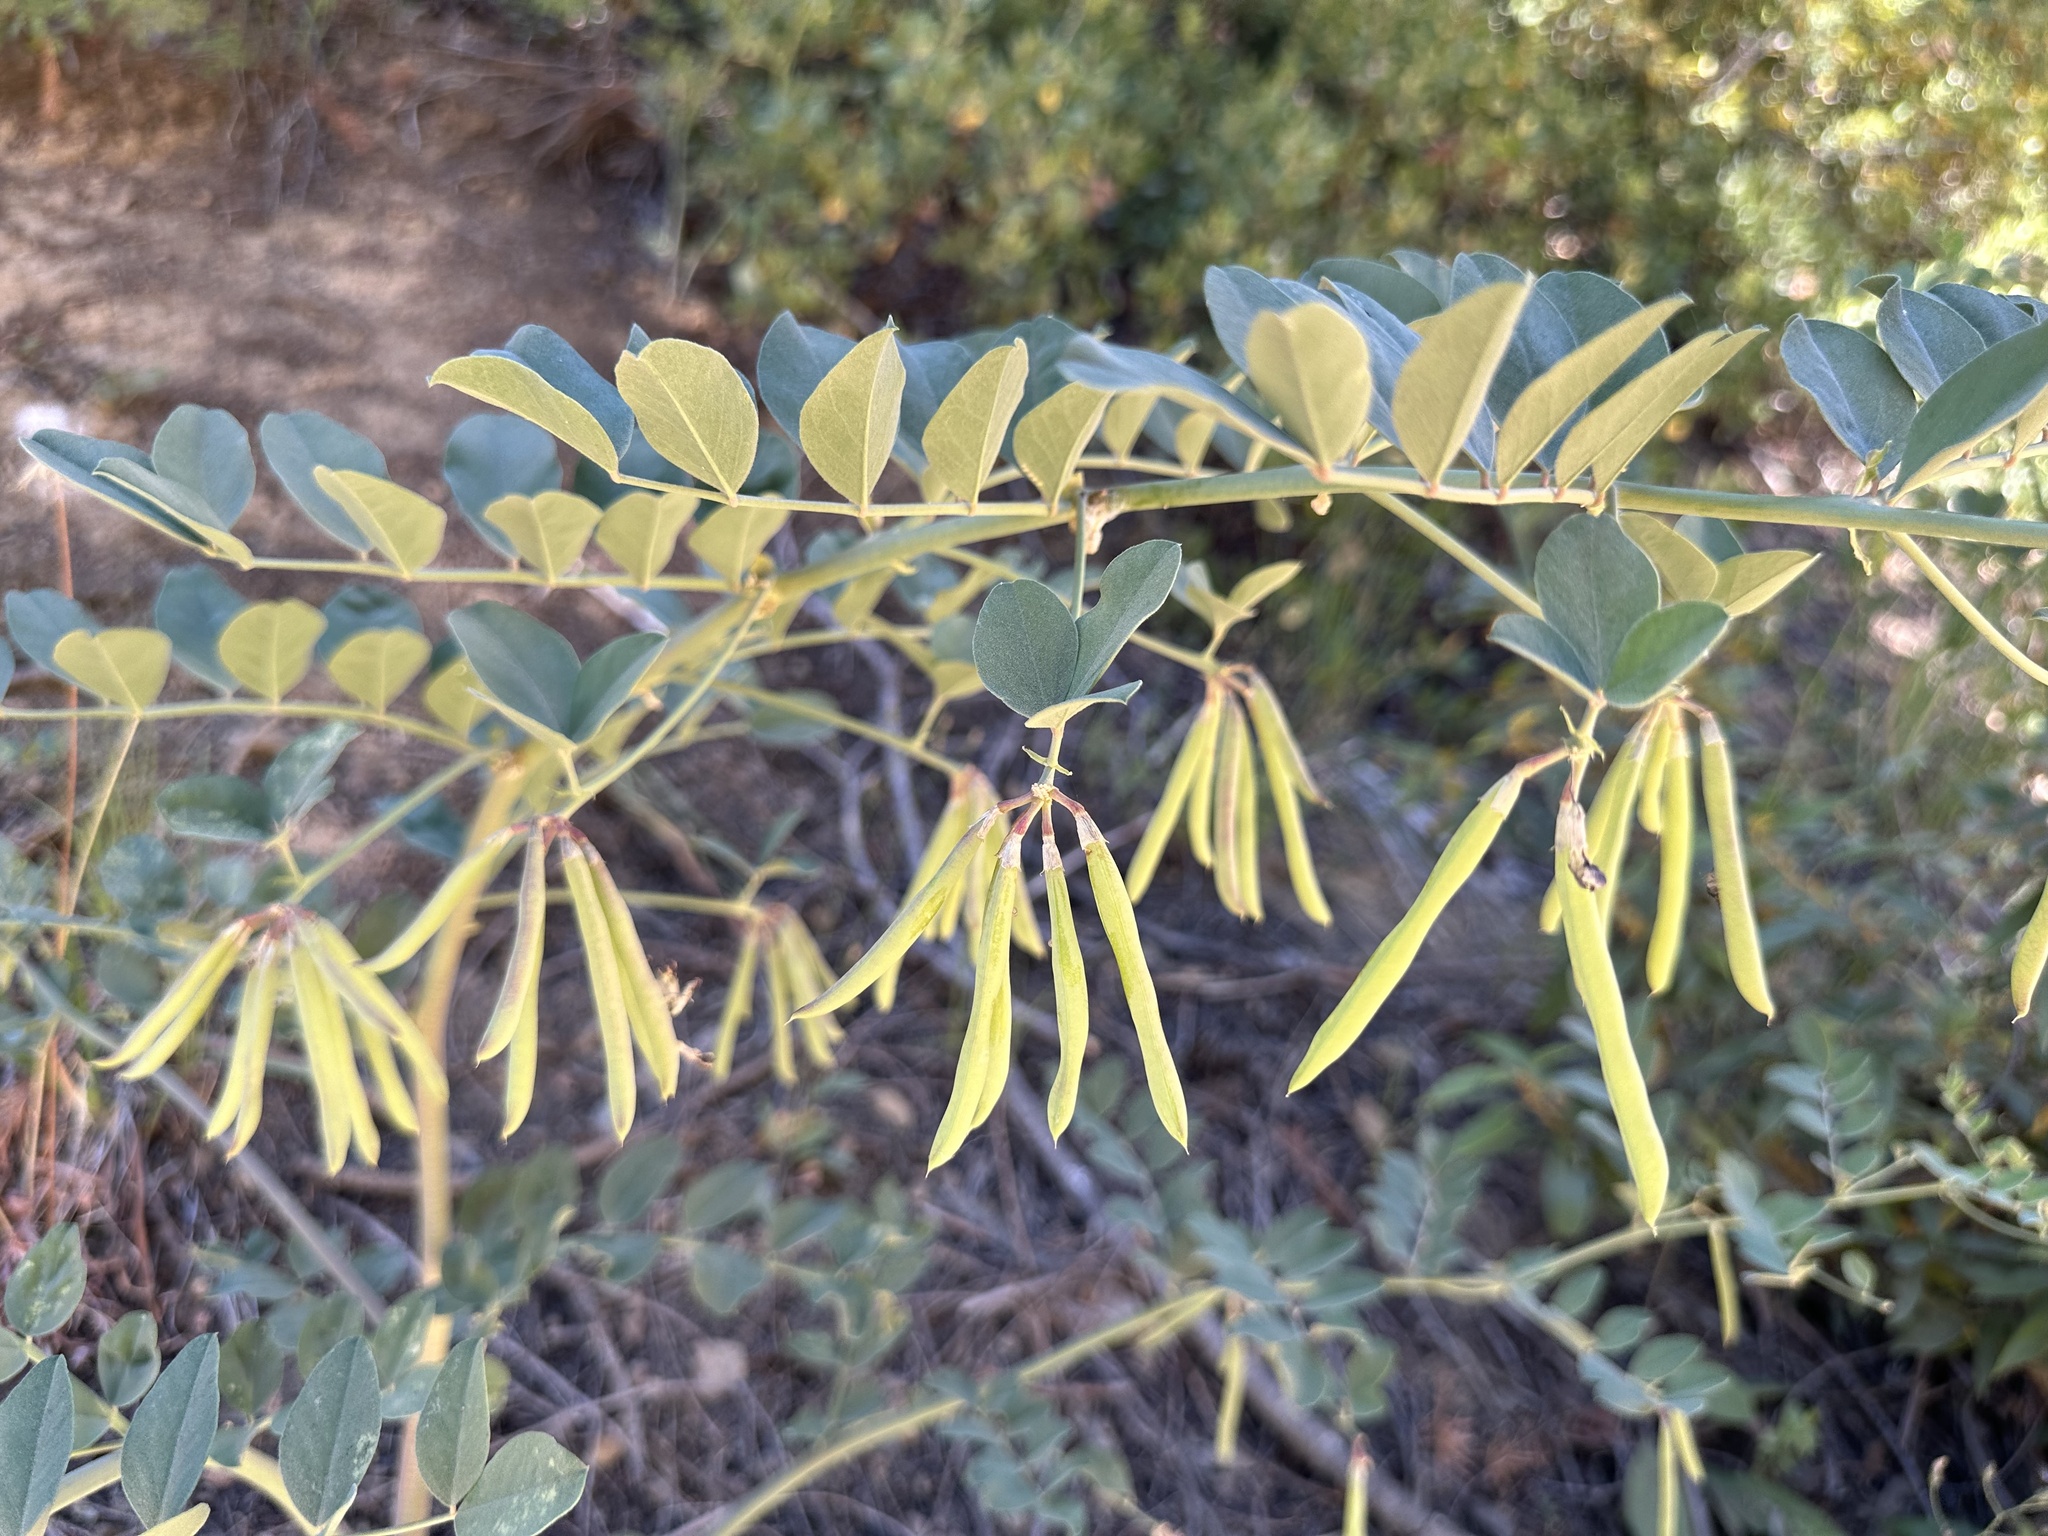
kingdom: Plantae
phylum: Tracheophyta
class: Magnoliopsida
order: Fabales
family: Fabaceae
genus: Hosackia
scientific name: Hosackia crassifolia
